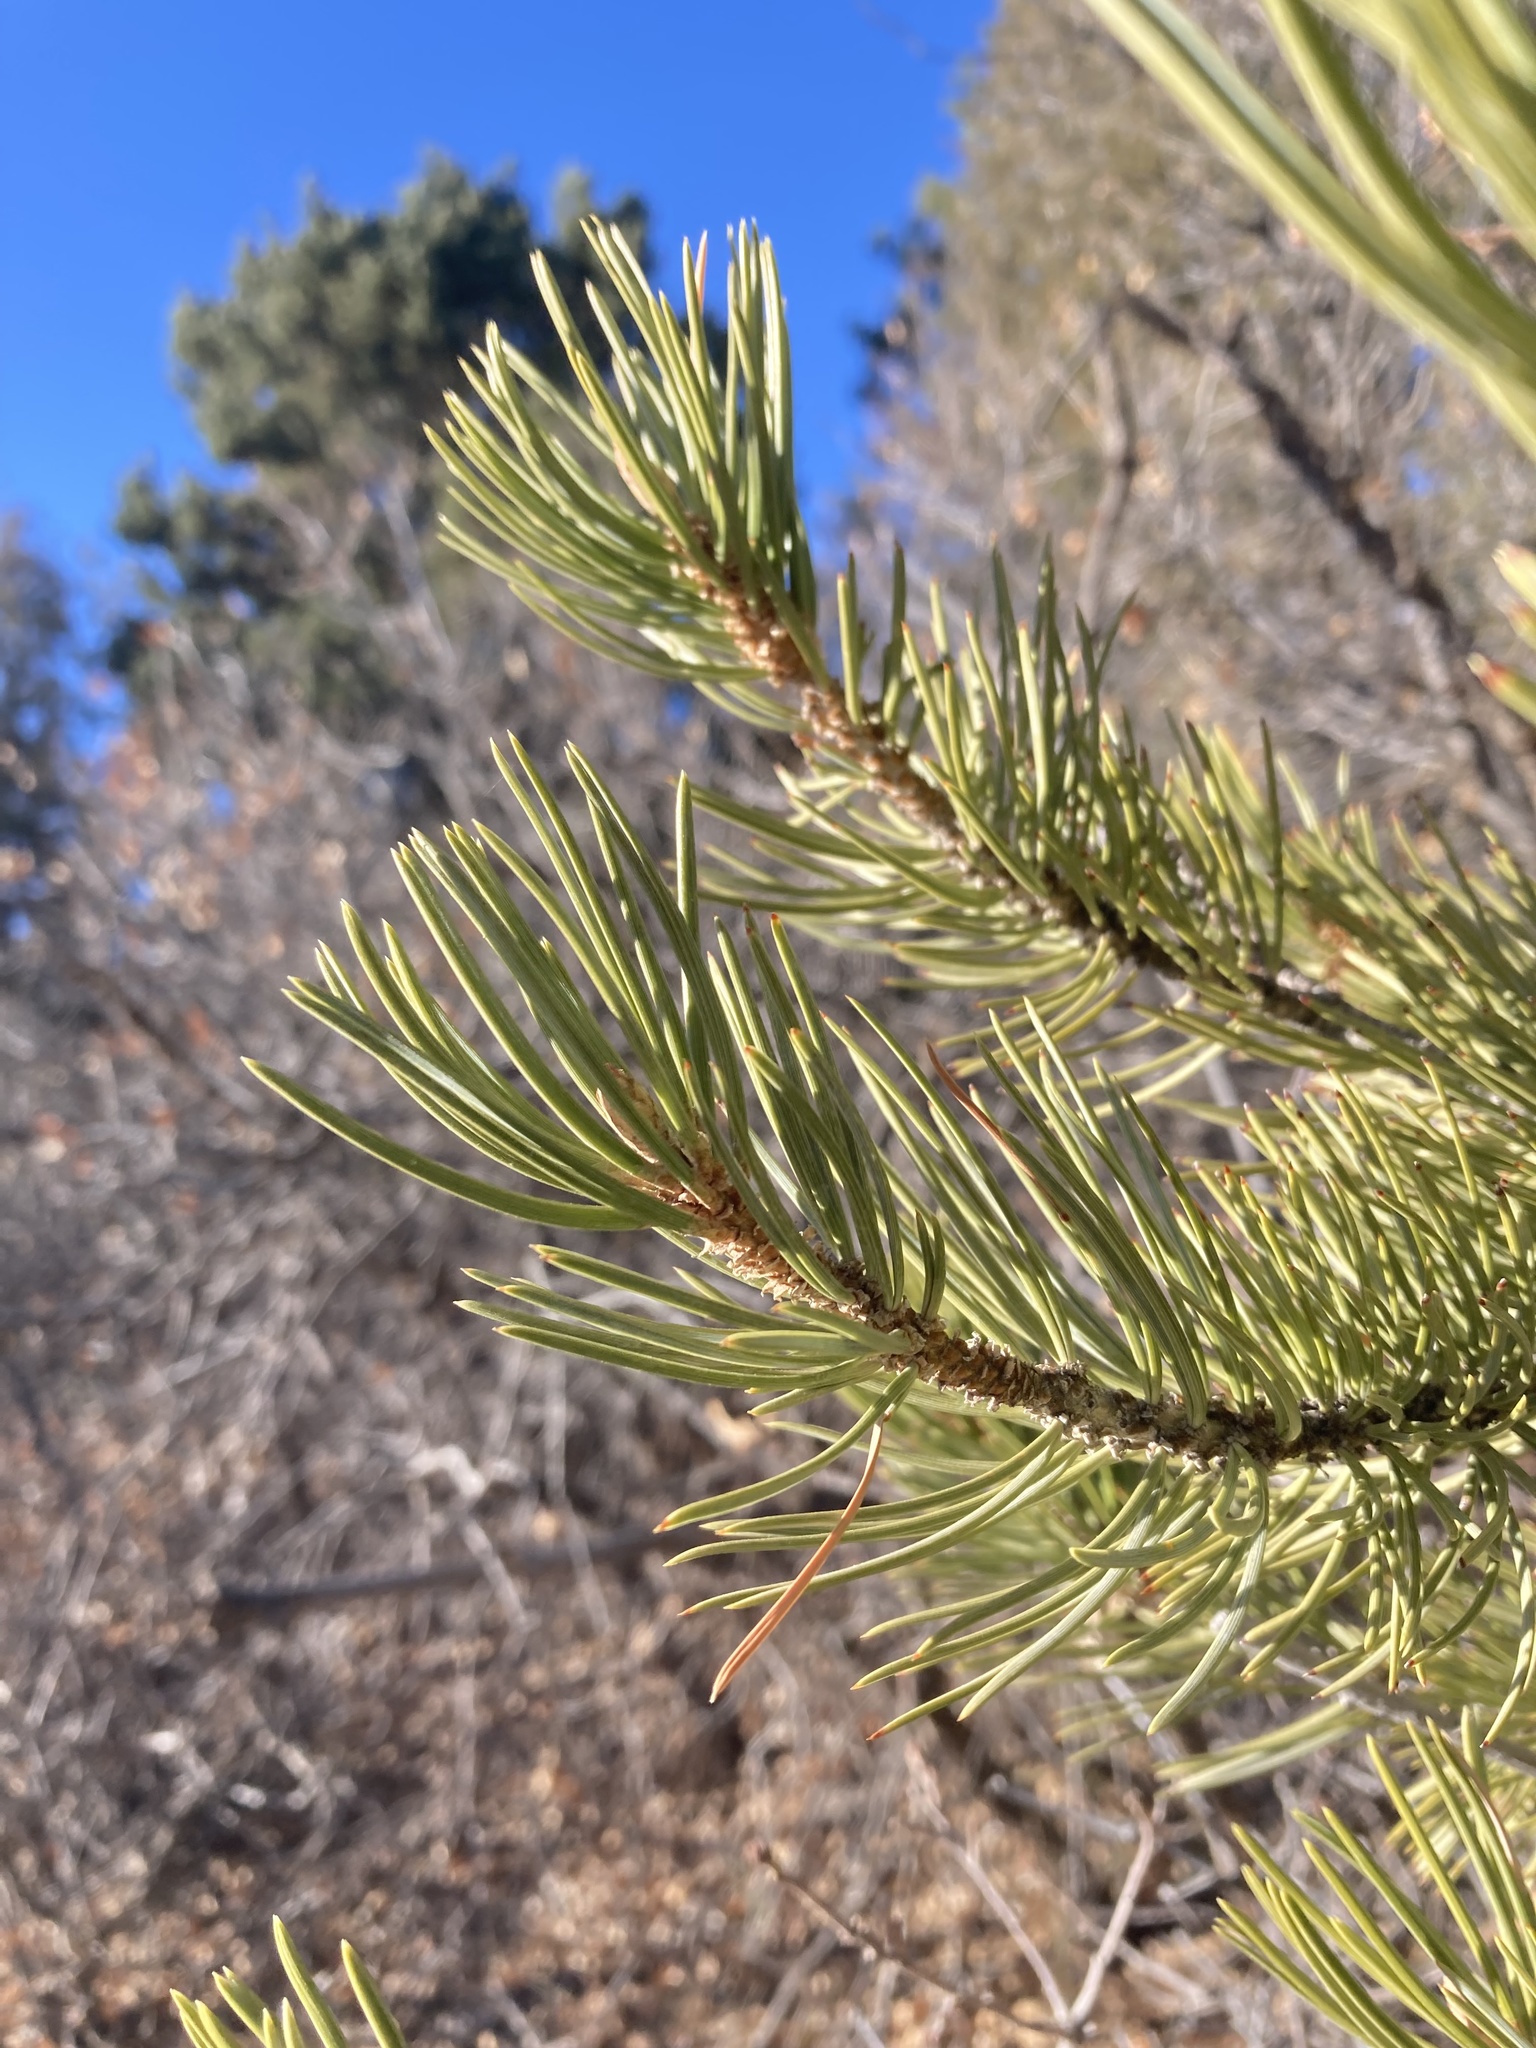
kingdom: Plantae
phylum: Tracheophyta
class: Pinopsida
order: Pinales
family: Pinaceae
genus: Pinus
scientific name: Pinus edulis
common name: Colorado pinyon
